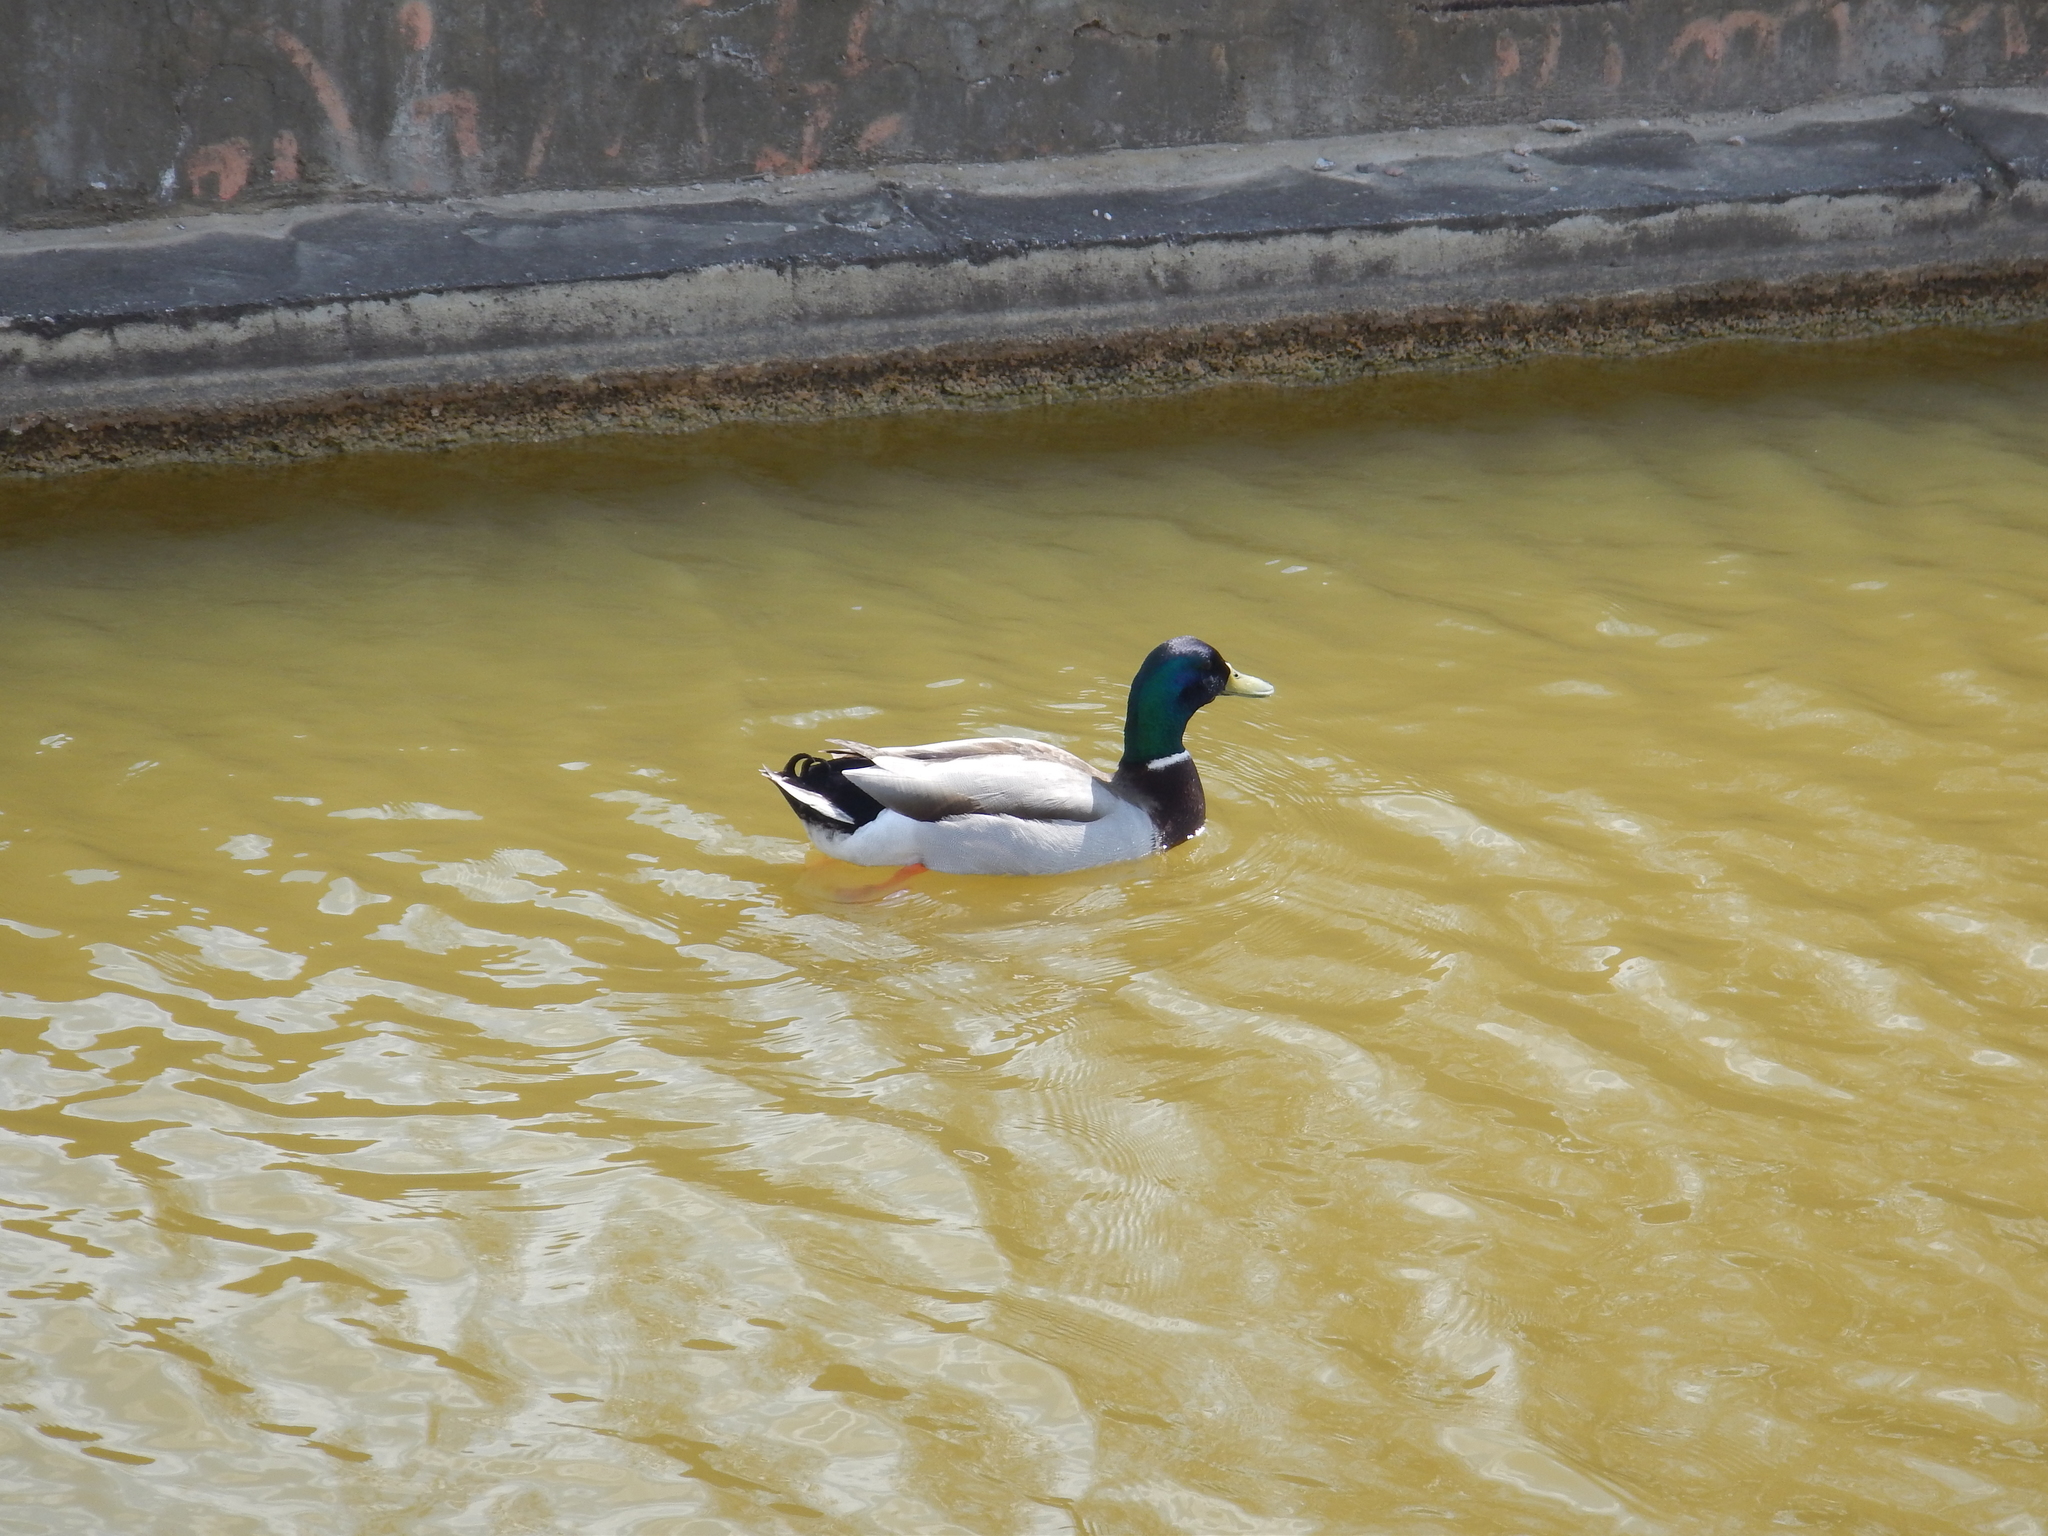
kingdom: Animalia
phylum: Chordata
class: Aves
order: Anseriformes
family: Anatidae
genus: Anas
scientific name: Anas platyrhynchos
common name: Mallard
